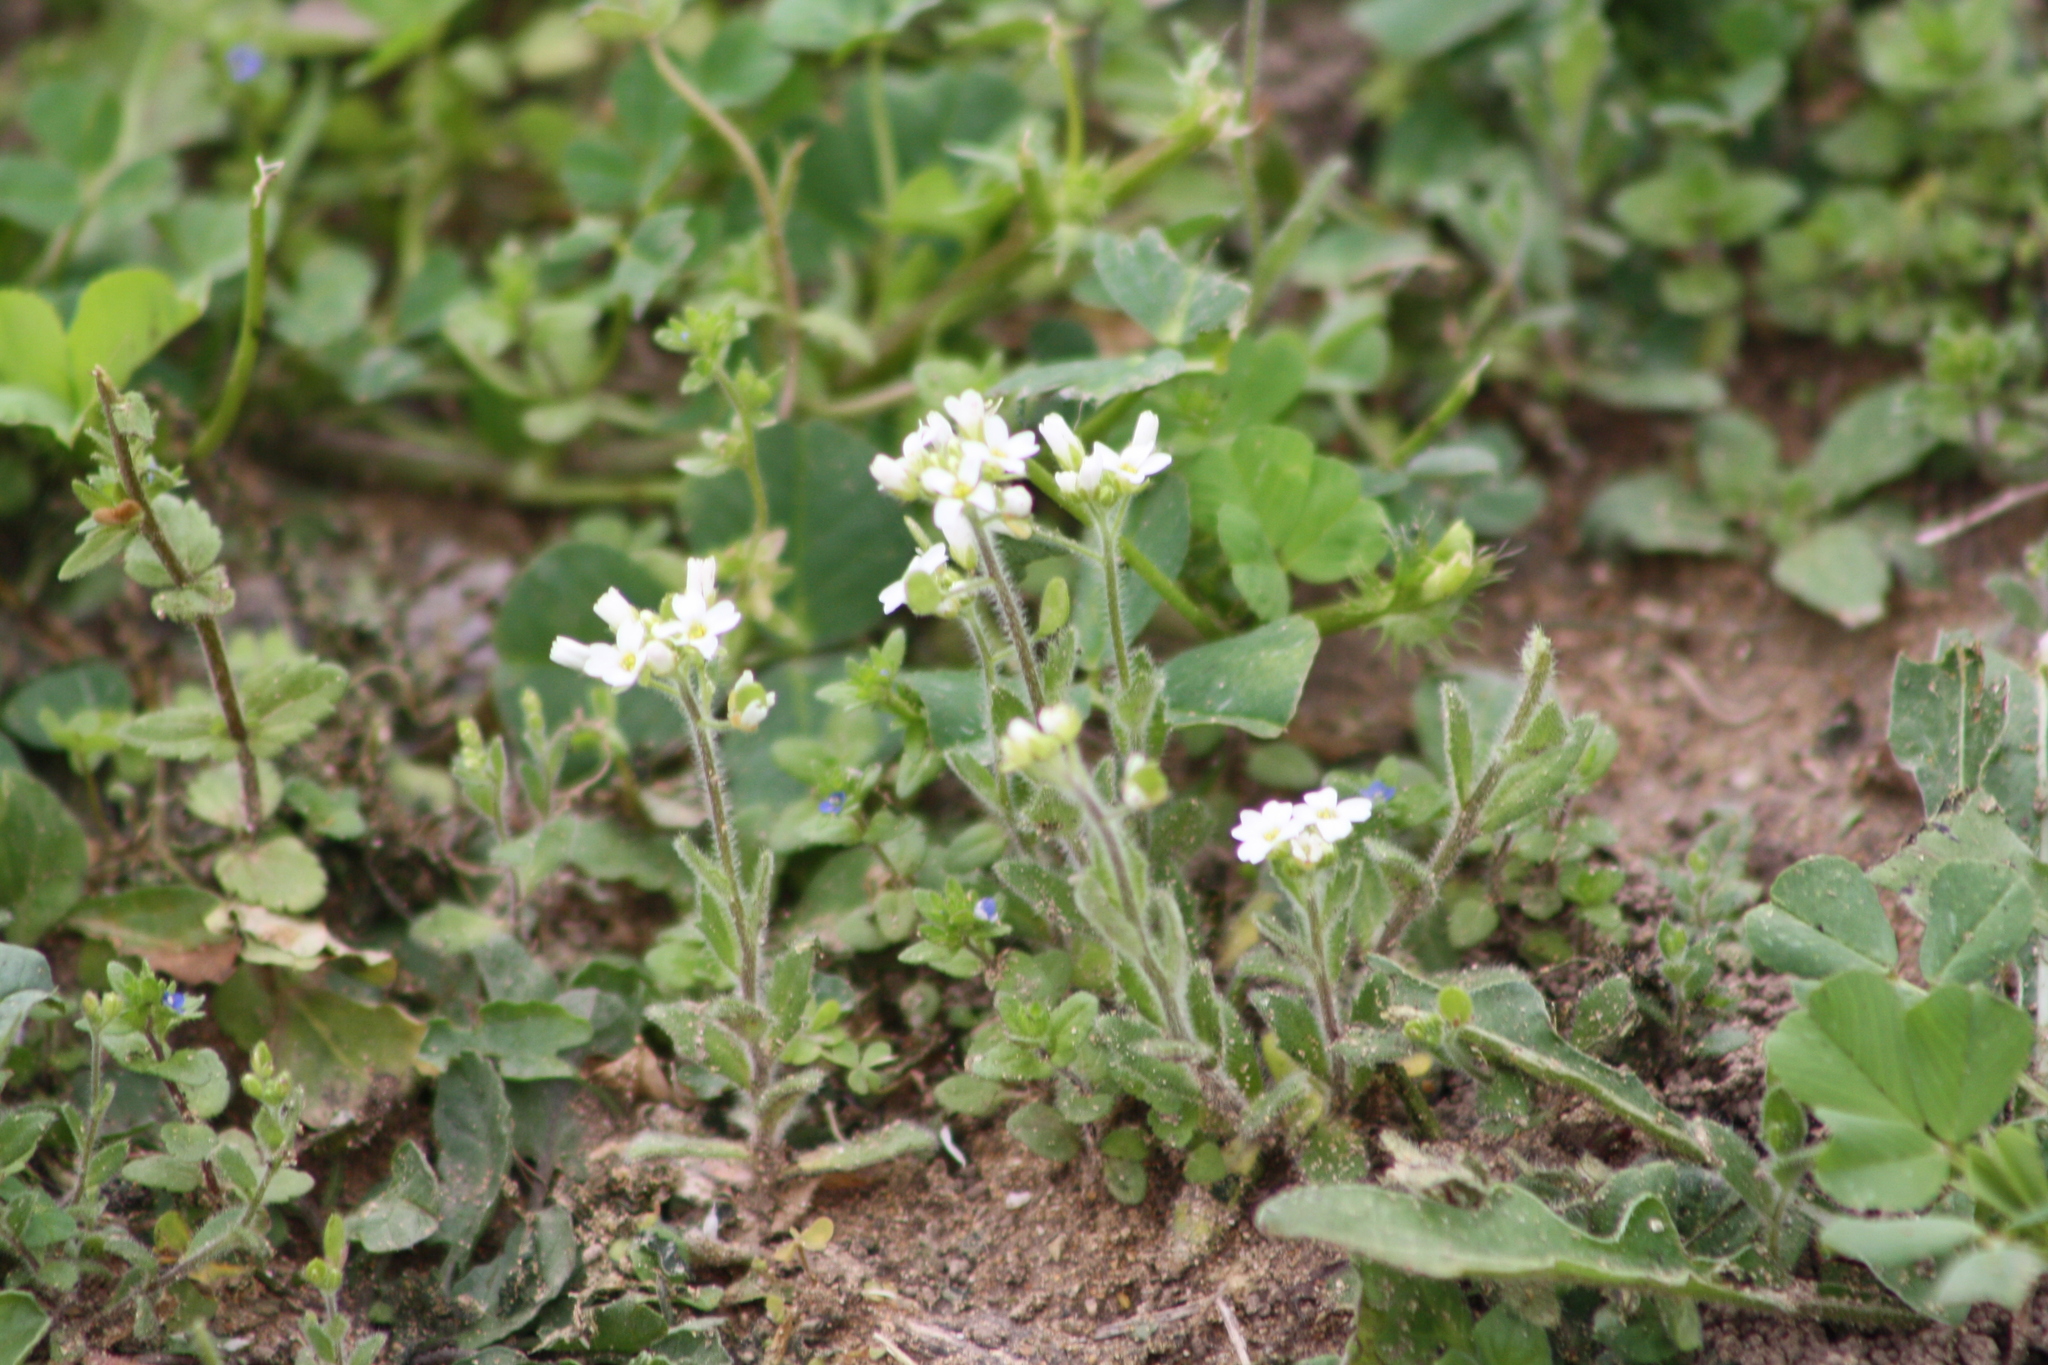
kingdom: Plantae
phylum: Tracheophyta
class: Magnoliopsida
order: Brassicales
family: Brassicaceae
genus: Tomostima
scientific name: Tomostima platycarpa
